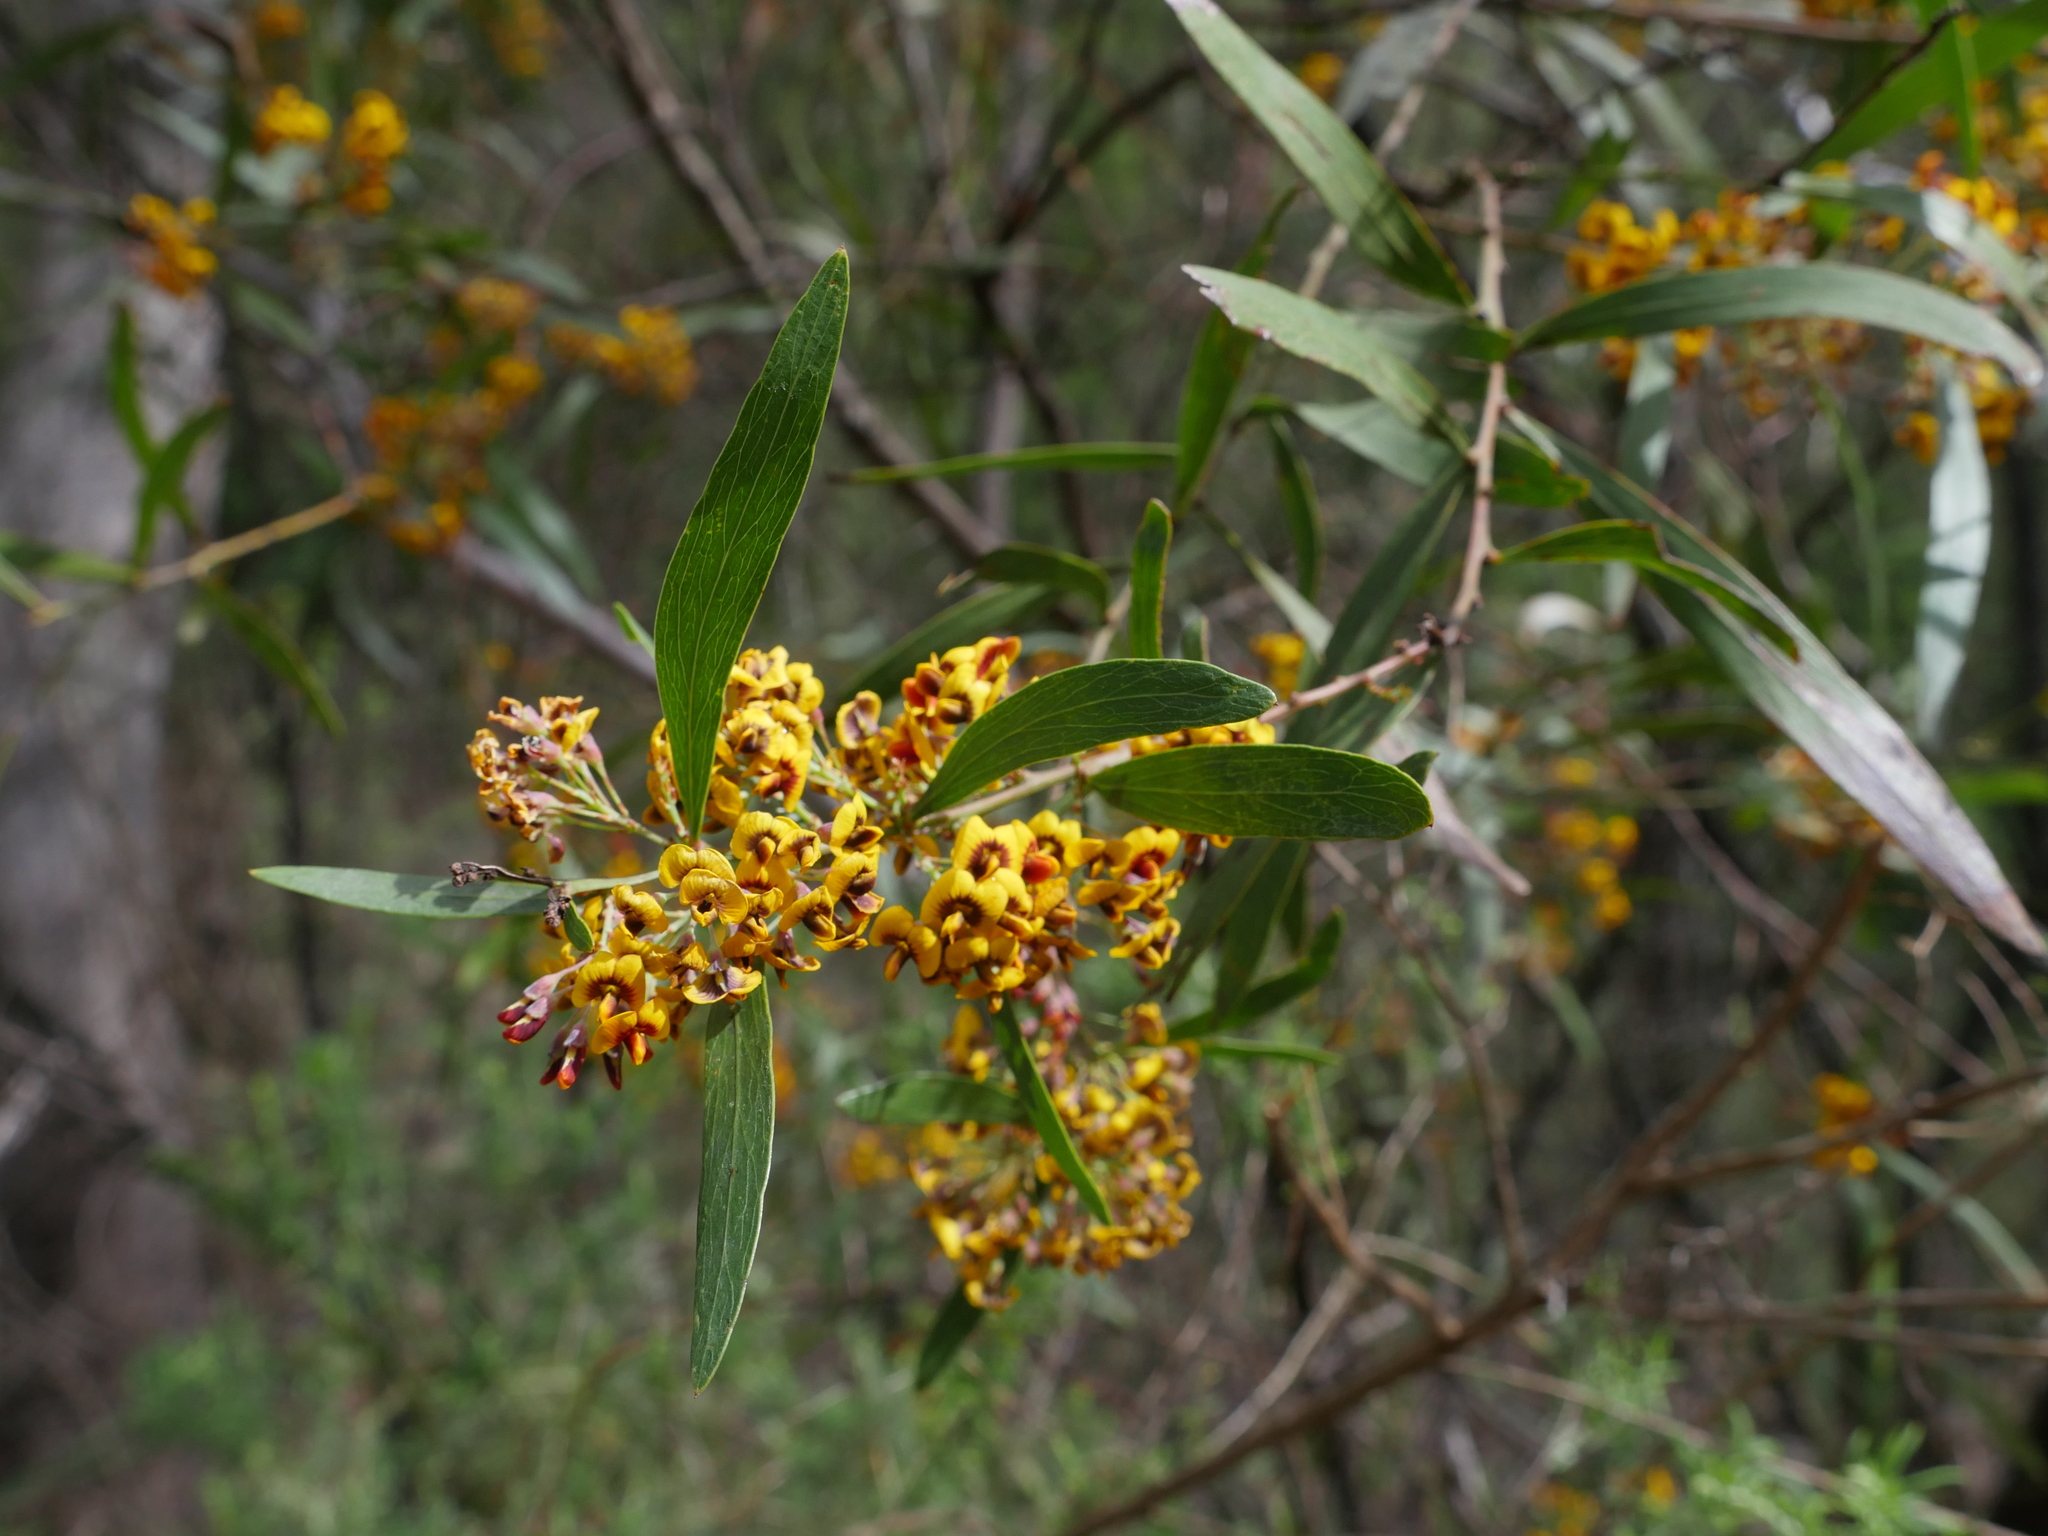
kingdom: Plantae
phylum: Tracheophyta
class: Magnoliopsida
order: Fabales
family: Fabaceae
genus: Daviesia
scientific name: Daviesia mimosoides
